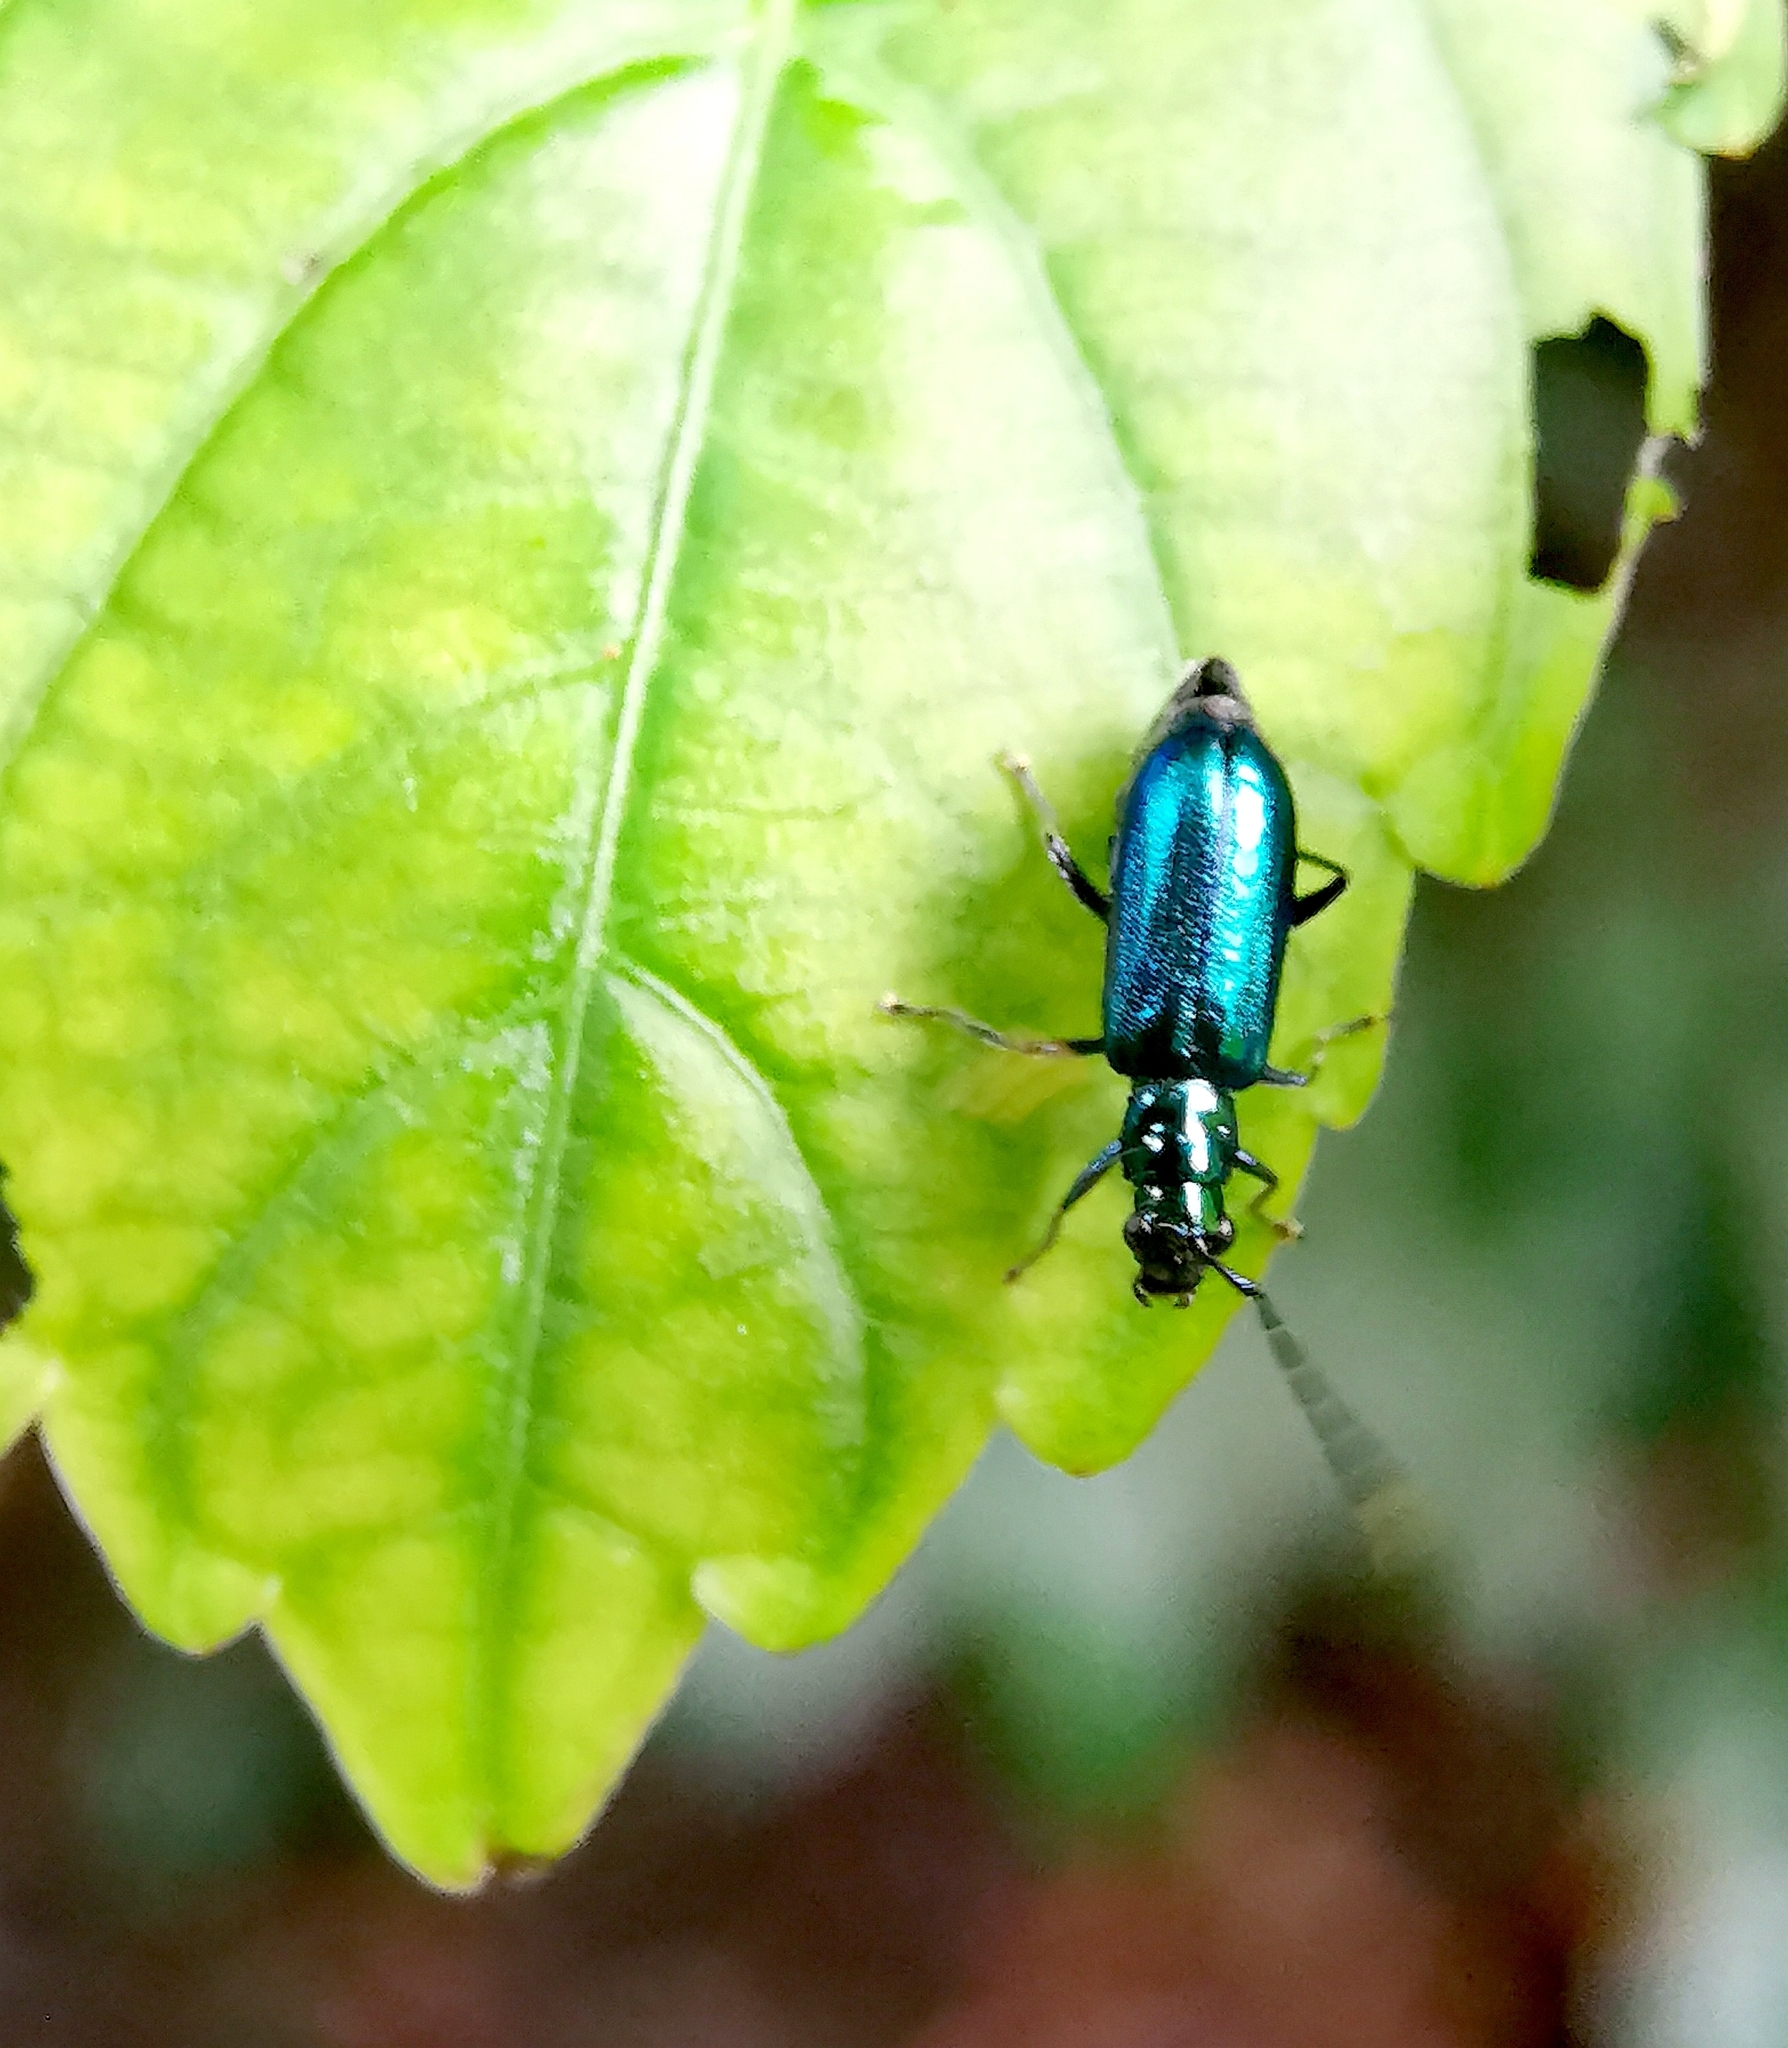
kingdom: Animalia
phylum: Arthropoda
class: Insecta
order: Coleoptera
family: Chrysomelidae
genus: Hoplosaenidea
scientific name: Hoplosaenidea
